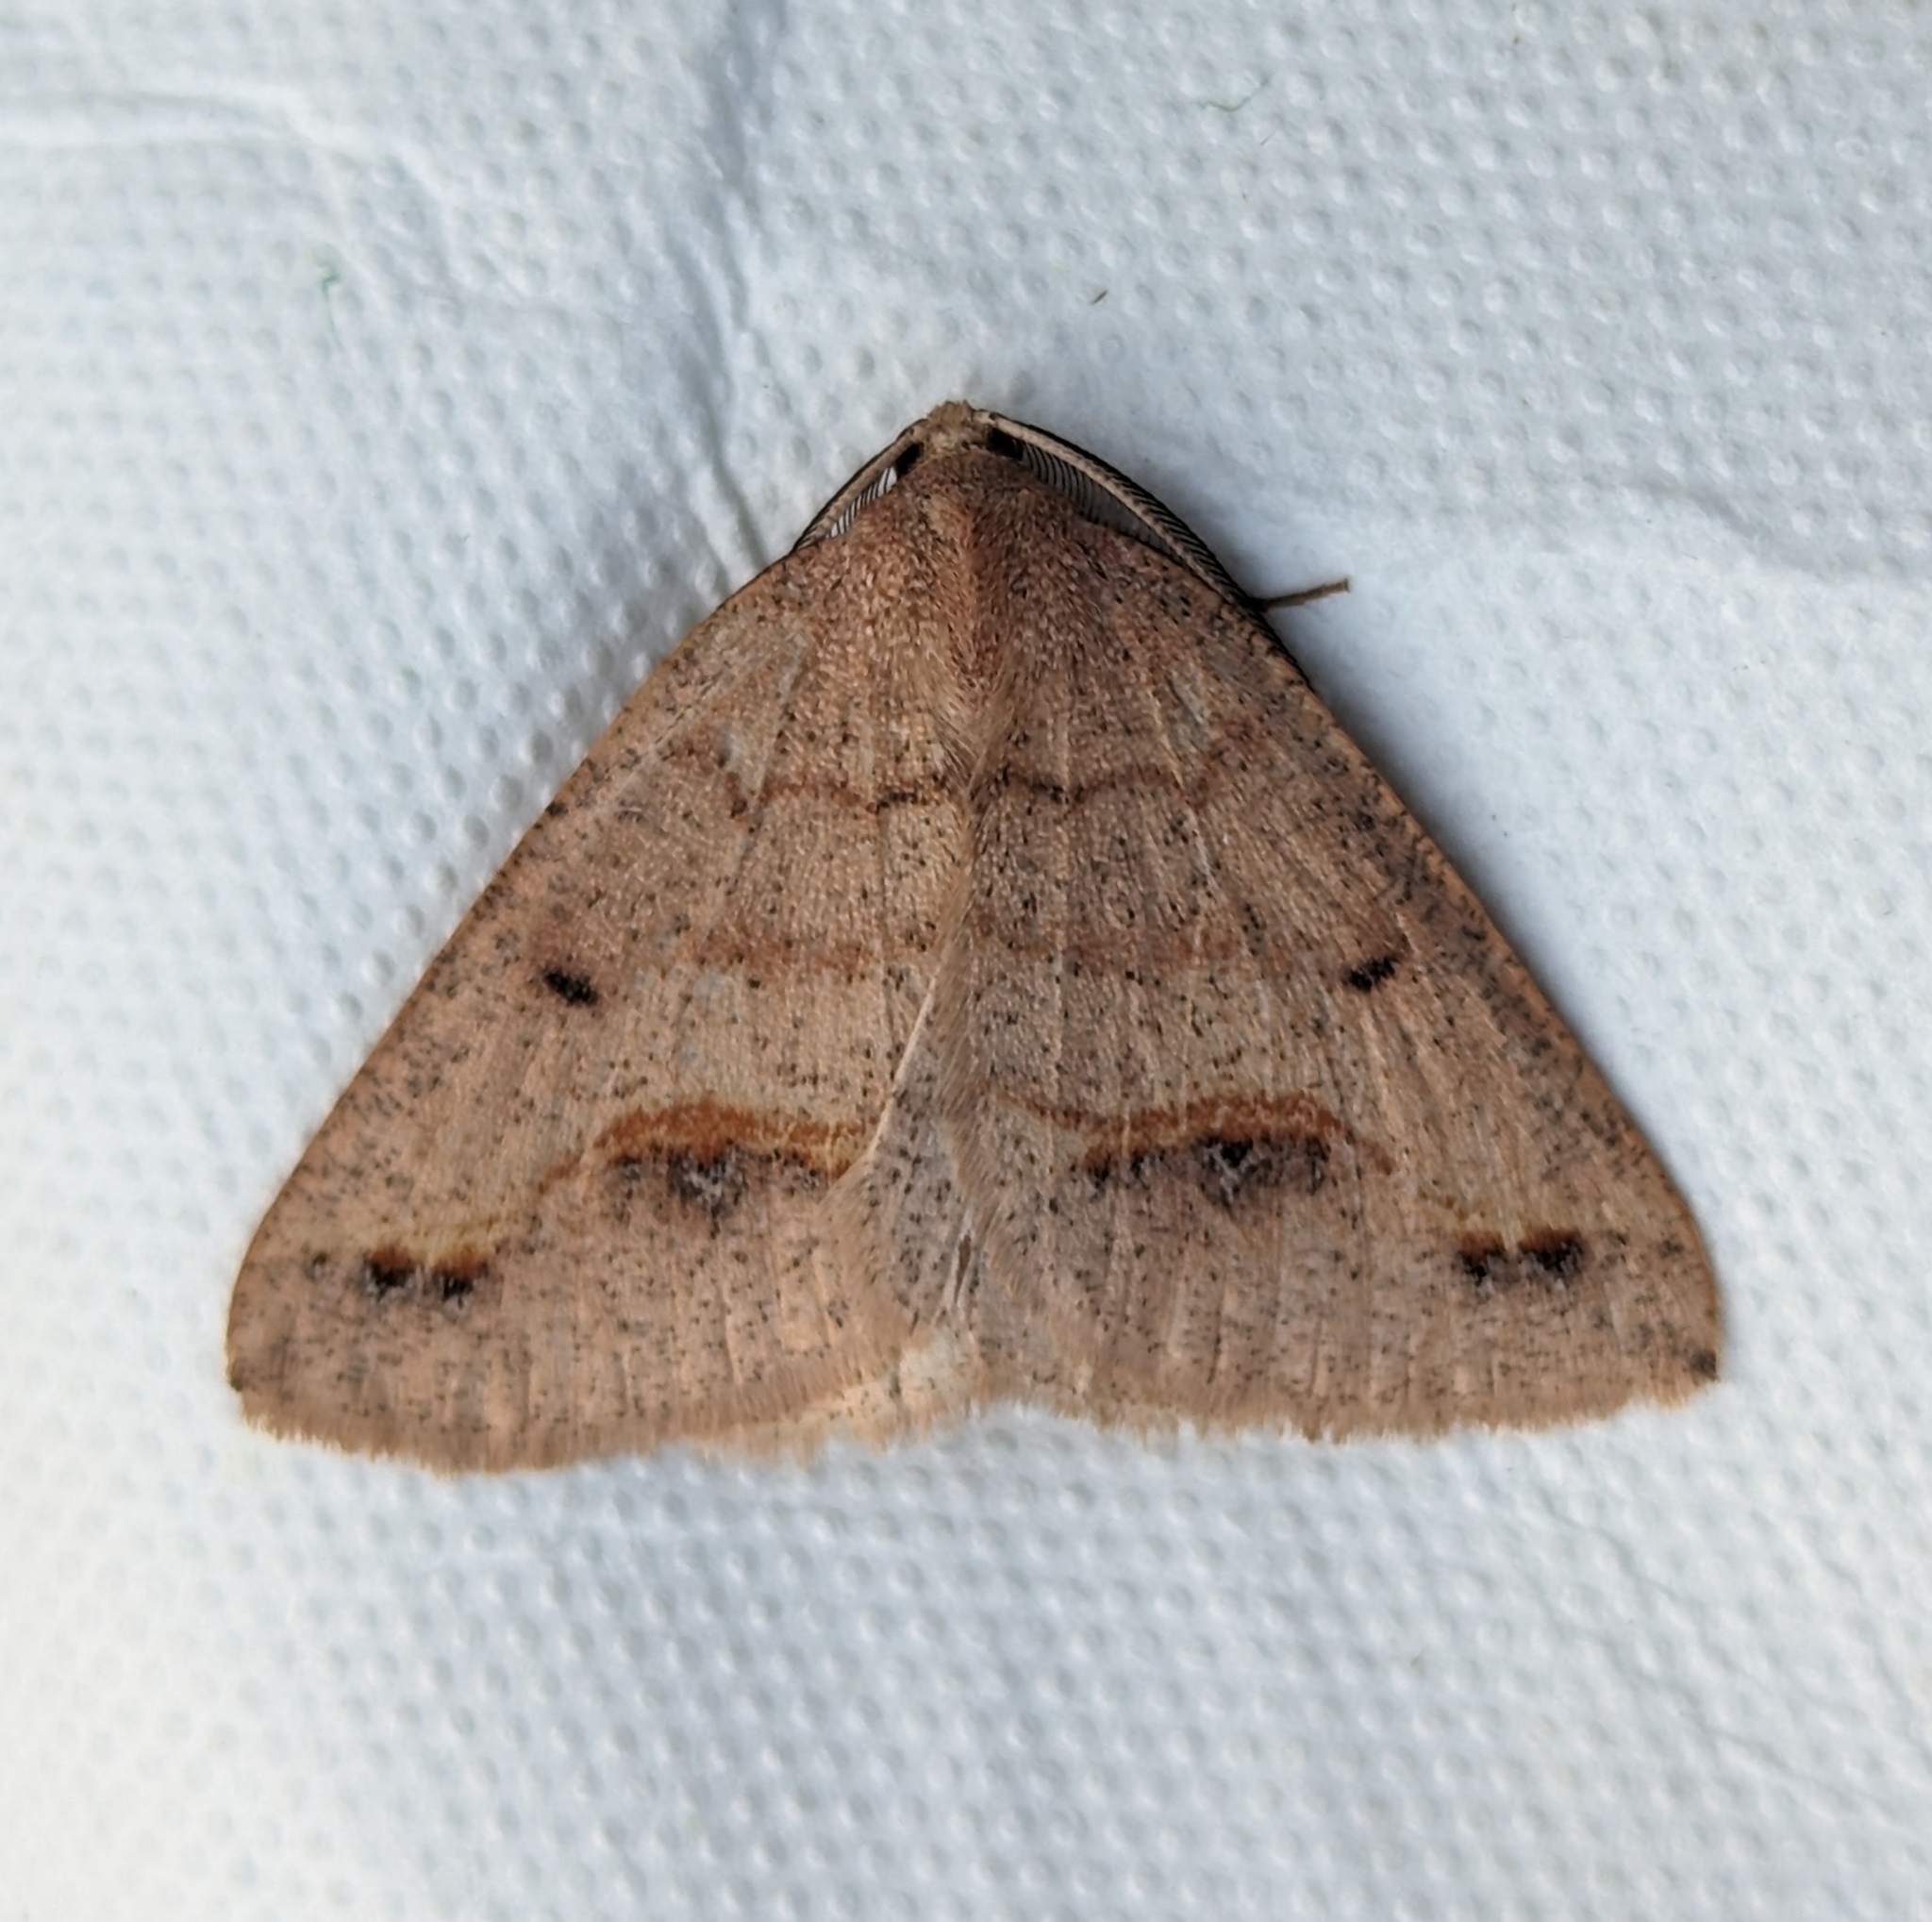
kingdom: Animalia
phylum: Arthropoda
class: Insecta
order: Lepidoptera
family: Geometridae
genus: Drepanulatrix
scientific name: Drepanulatrix unicalcararia
